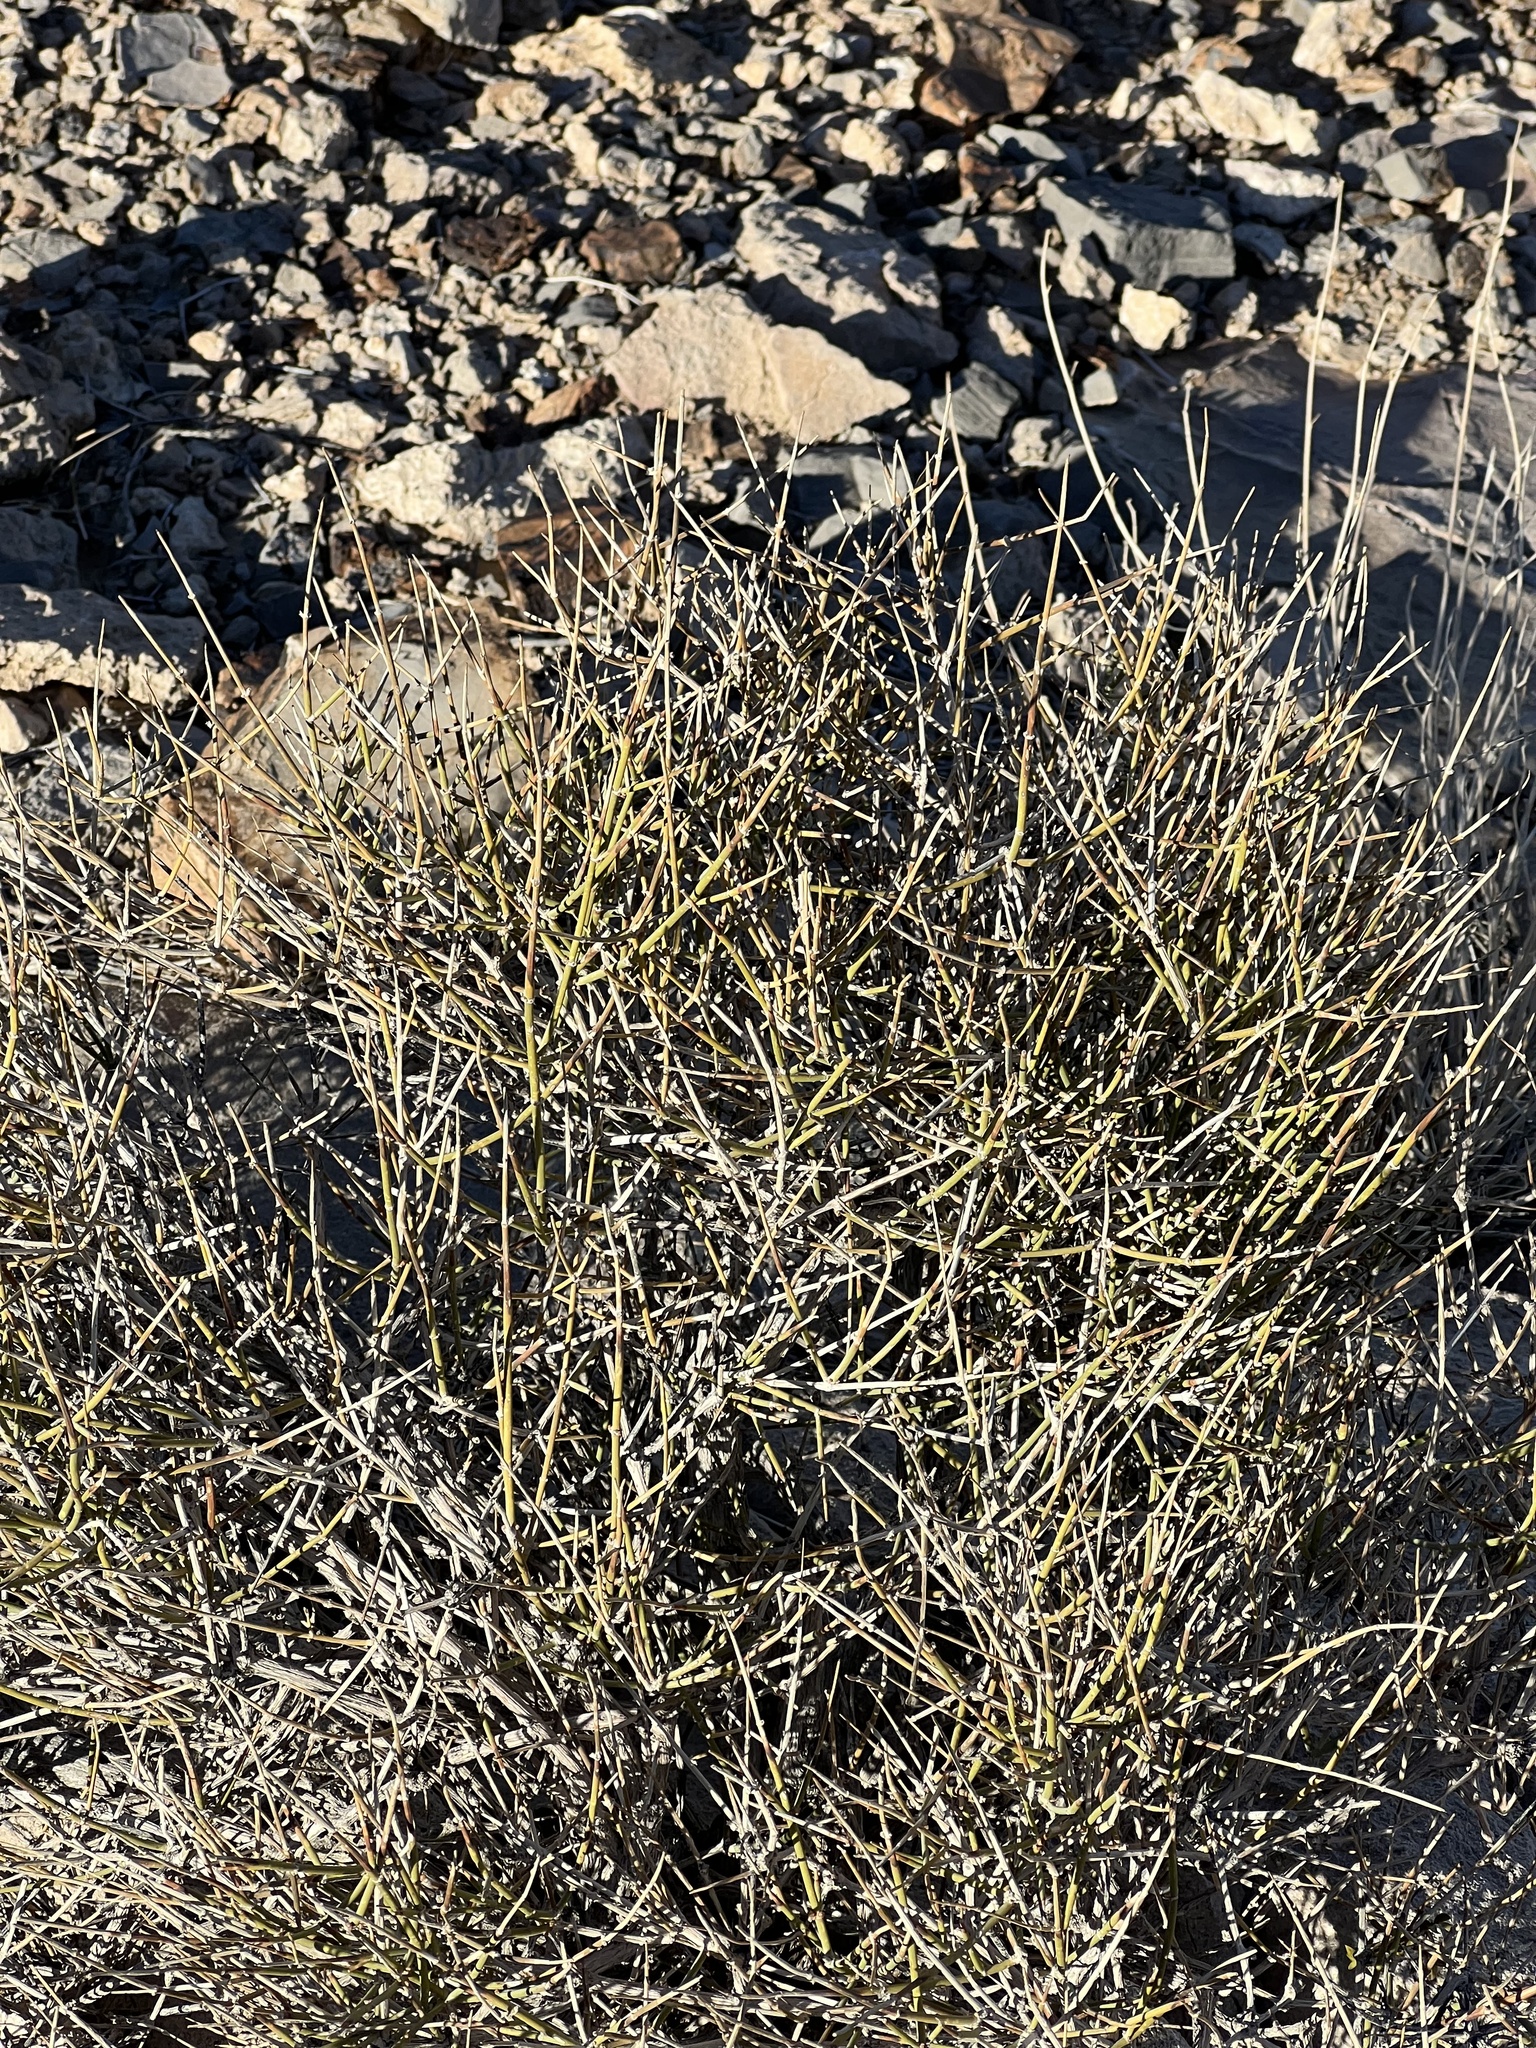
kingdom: Plantae
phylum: Tracheophyta
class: Gnetopsida
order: Ephedrales
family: Ephedraceae
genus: Ephedra
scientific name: Ephedra nevadensis
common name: Gray ephedra
